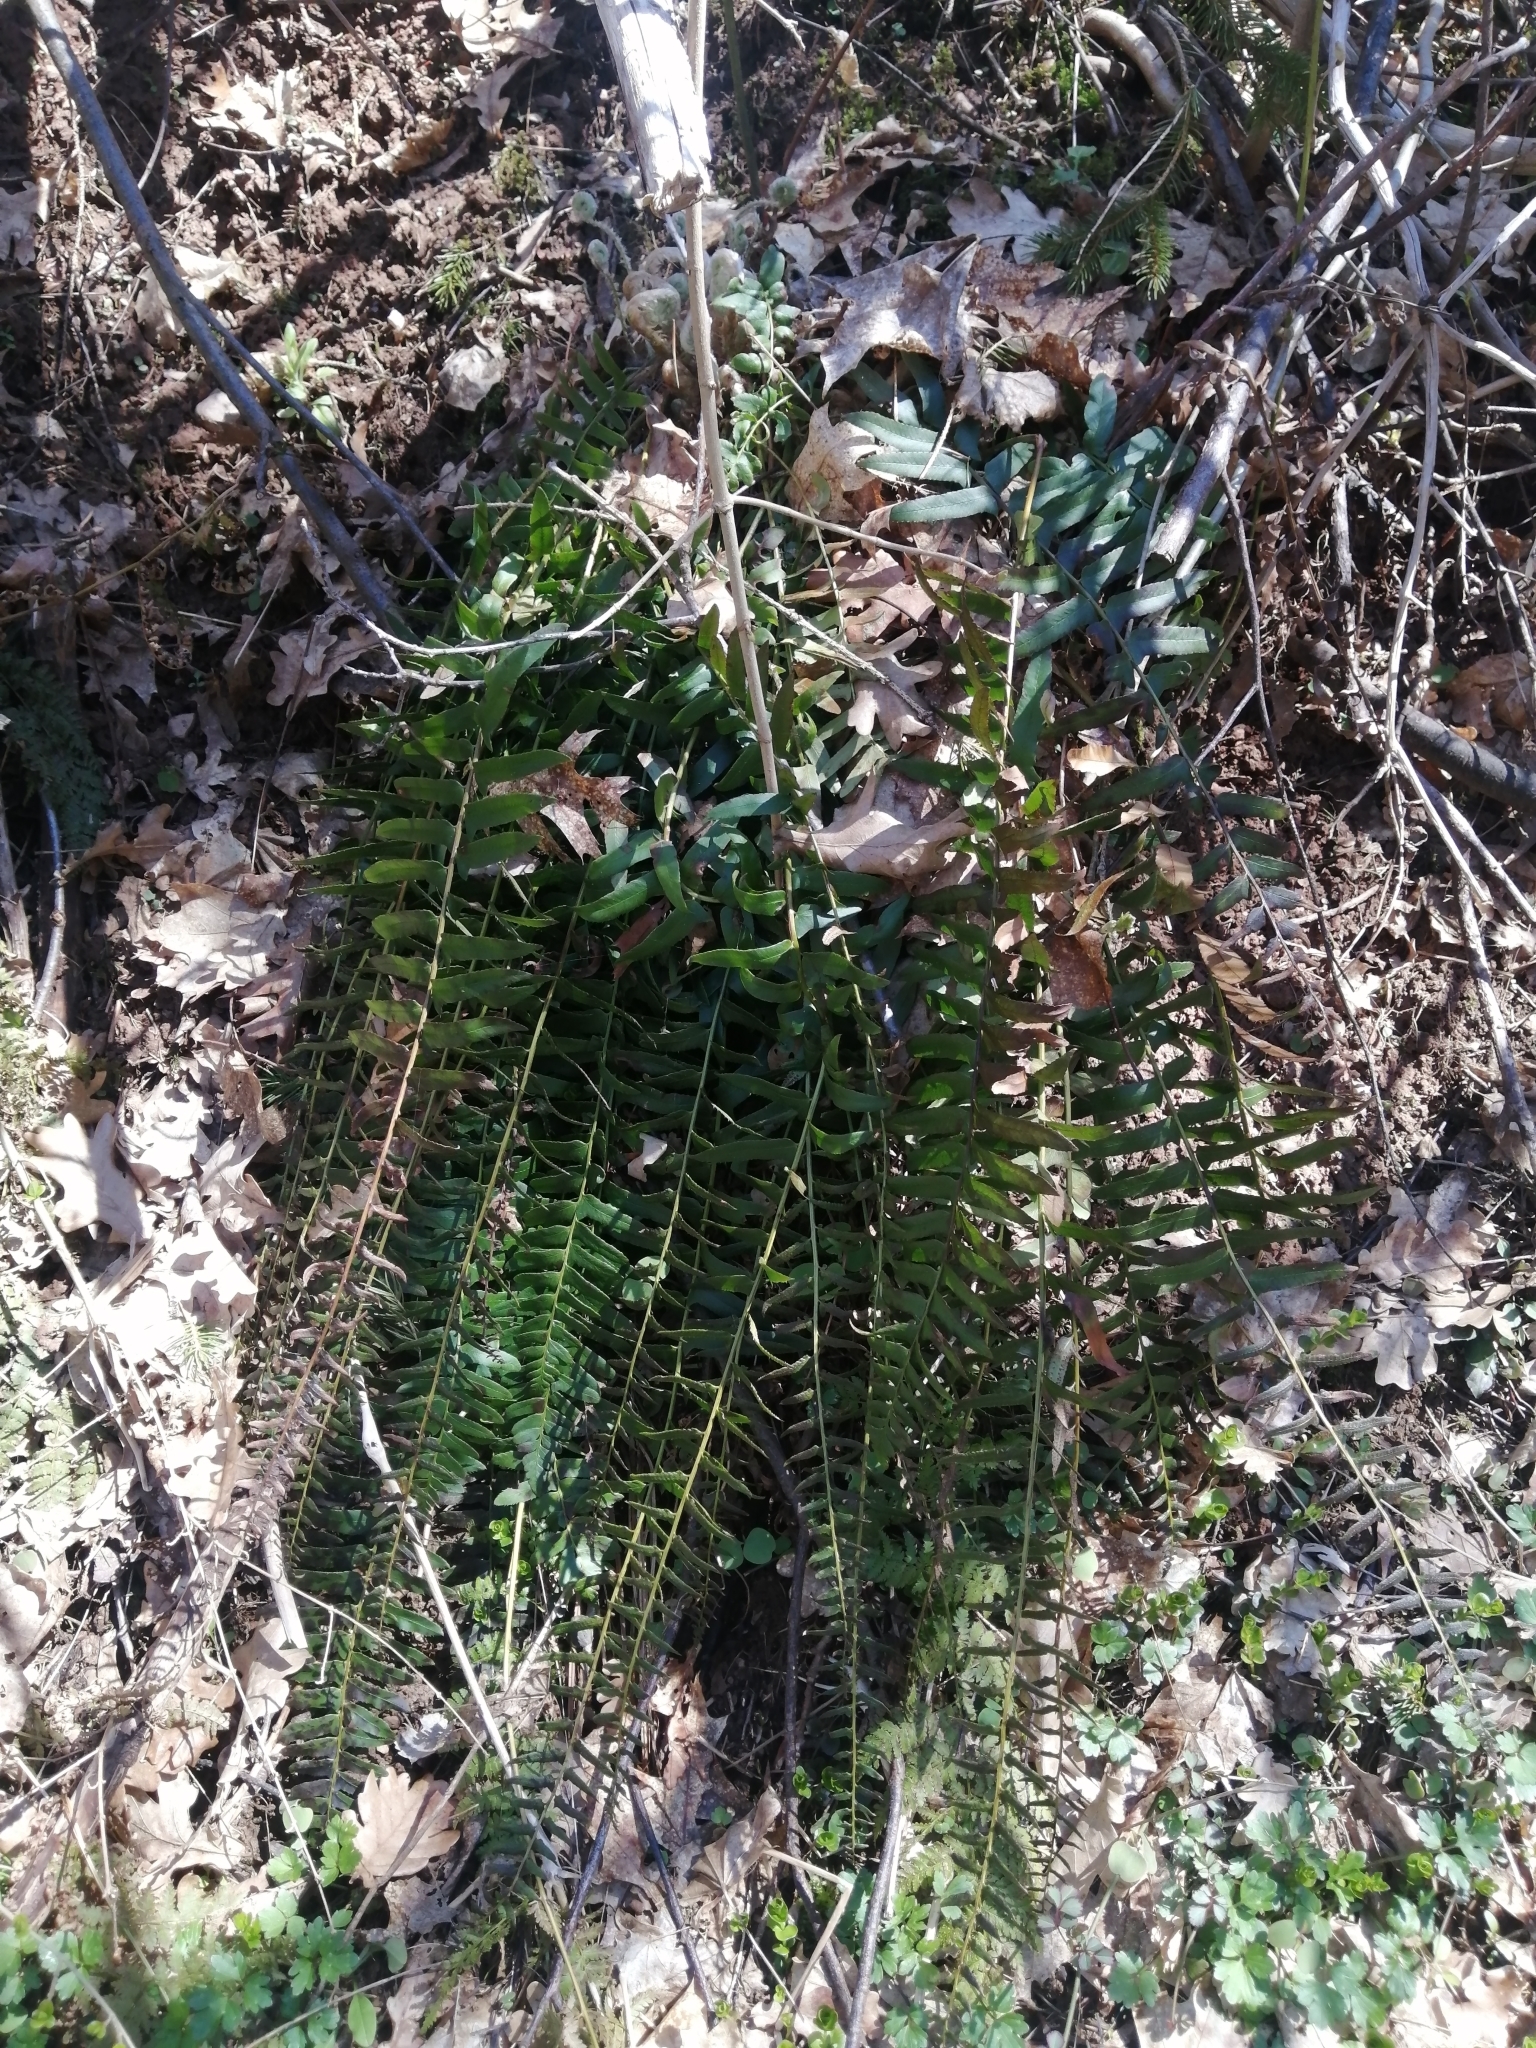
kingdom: Plantae
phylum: Tracheophyta
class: Polypodiopsida
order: Polypodiales
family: Dryopteridaceae
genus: Polystichum
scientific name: Polystichum acrostichoides
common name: Christmas fern
